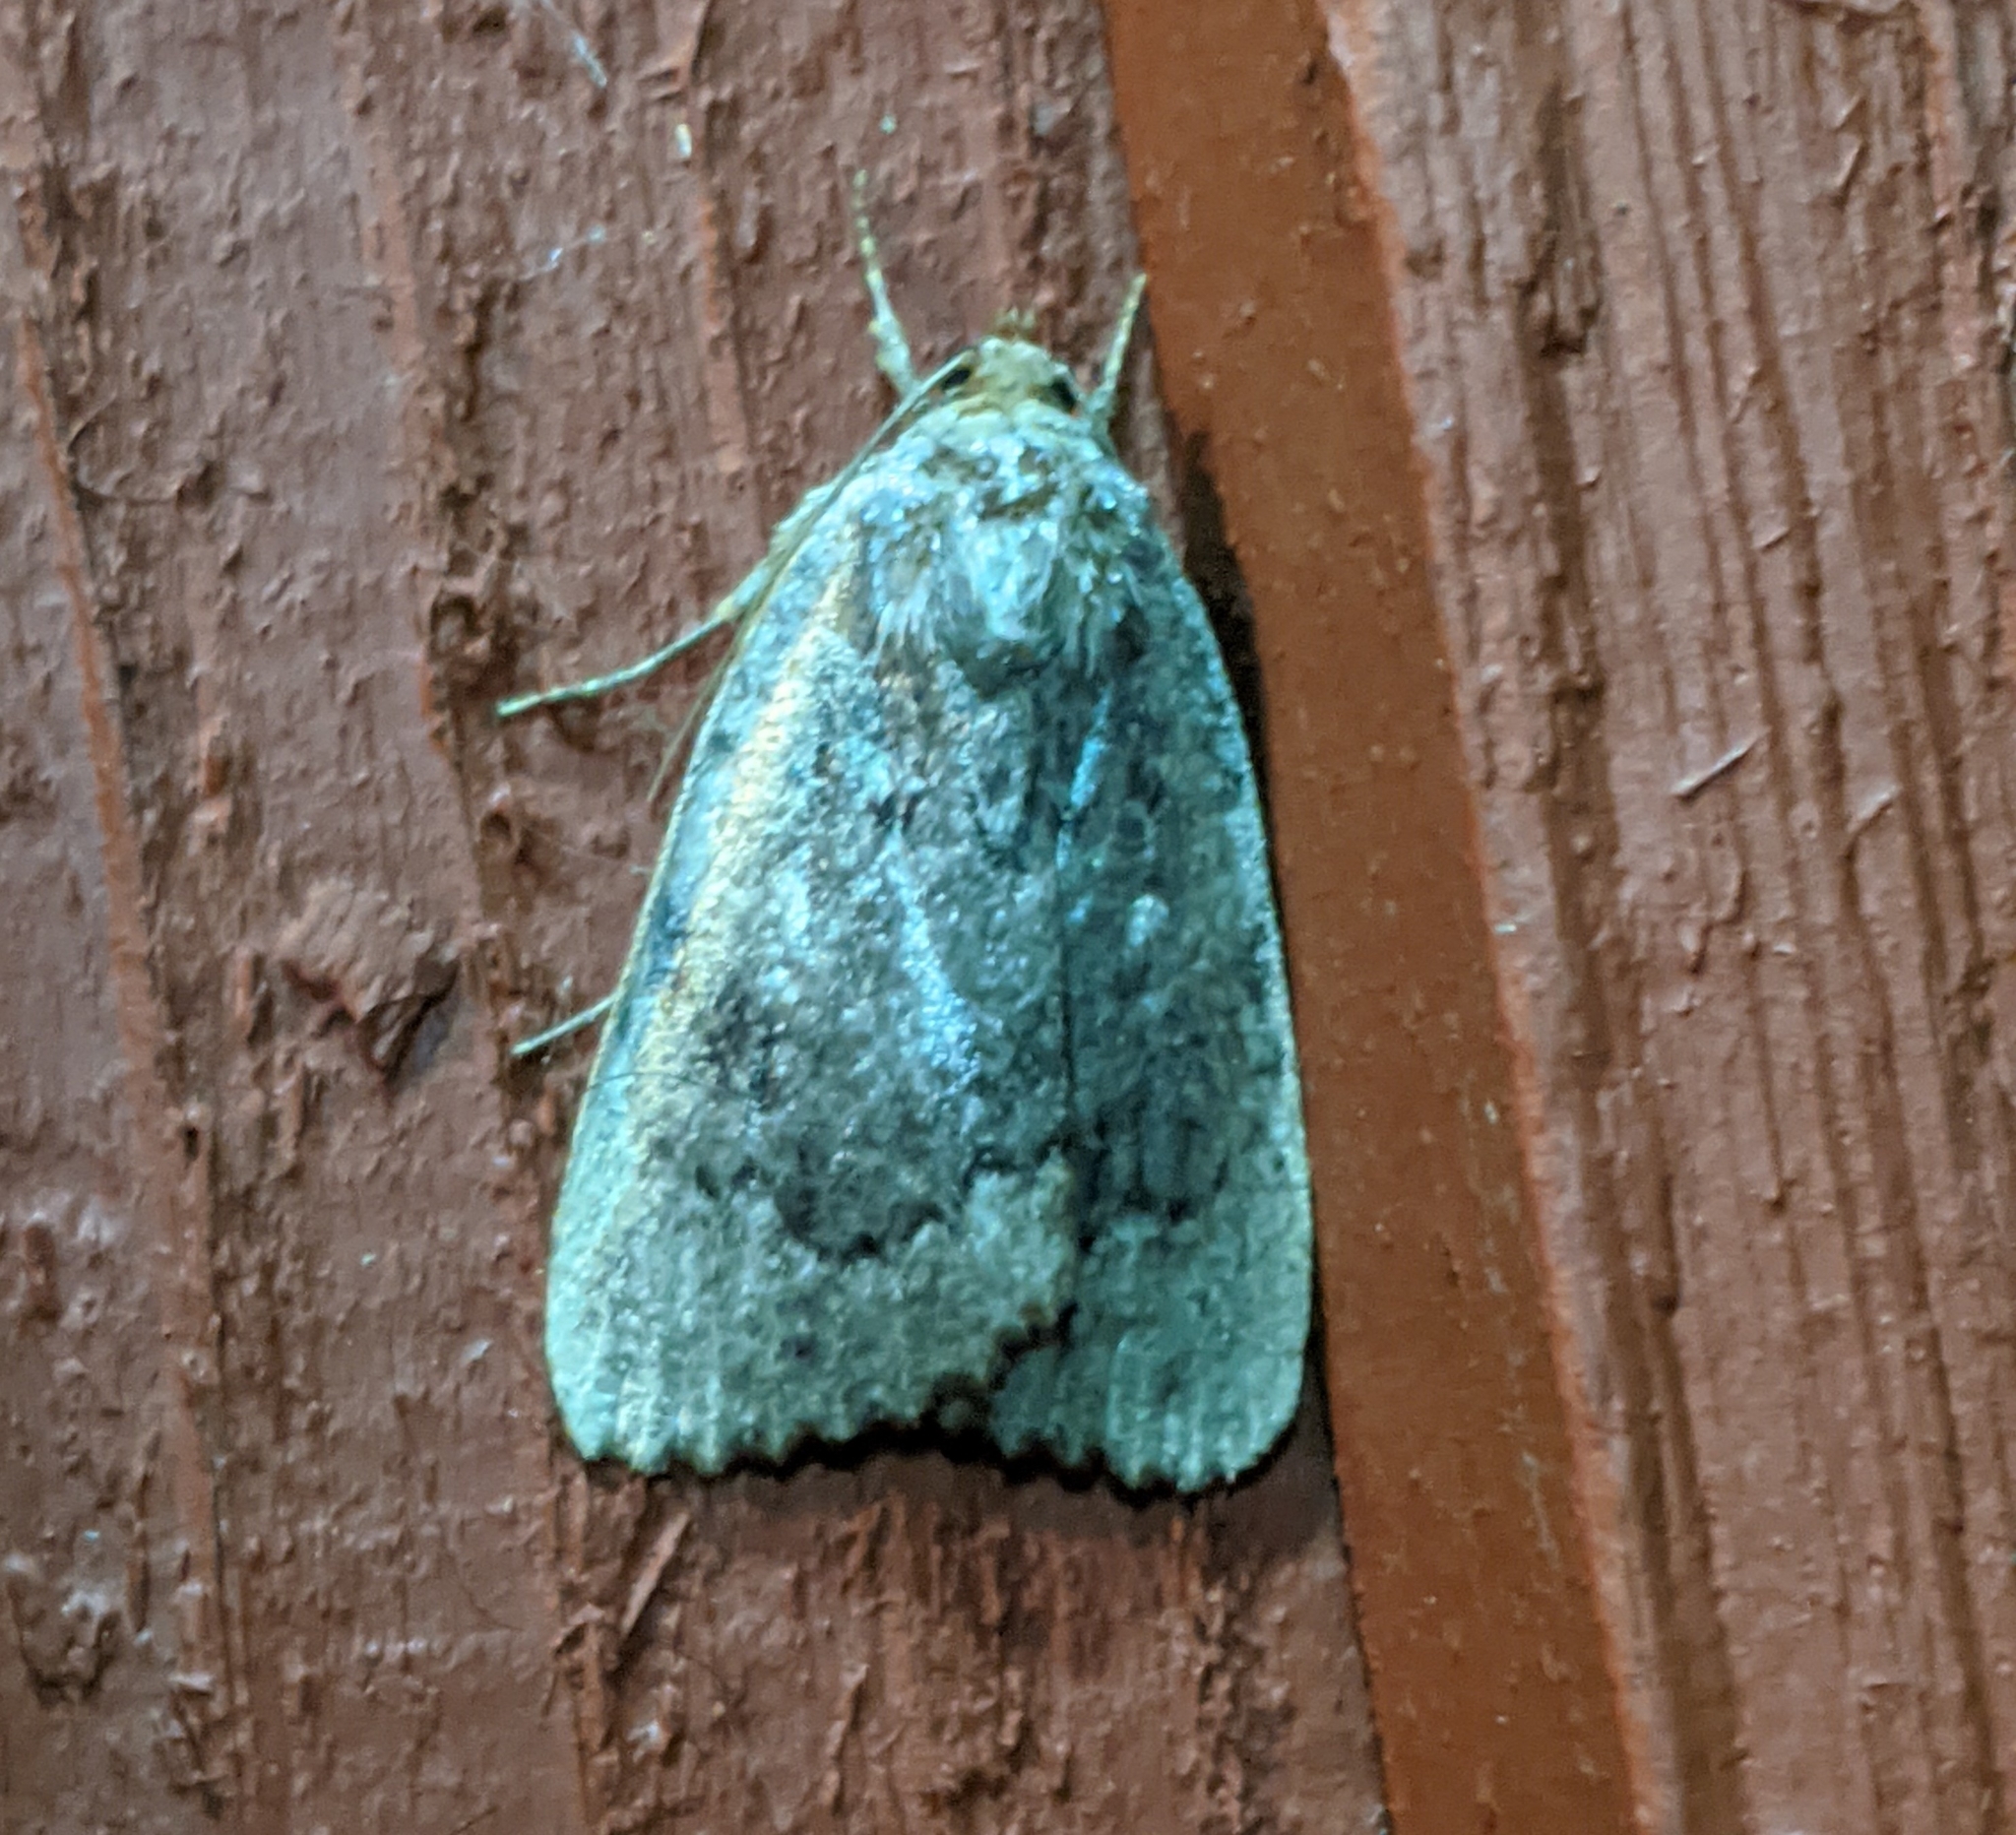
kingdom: Animalia
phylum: Arthropoda
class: Insecta
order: Lepidoptera
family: Noctuidae
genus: Amphipyra
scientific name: Amphipyra pyramidoides
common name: American copper underwing
